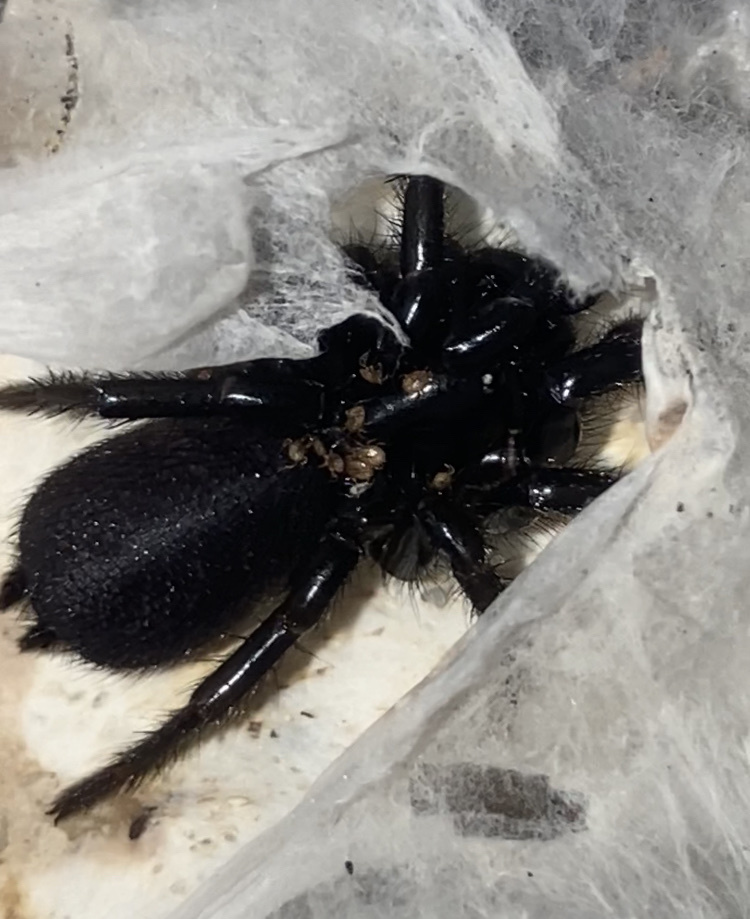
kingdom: Animalia
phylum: Arthropoda
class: Arachnida
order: Araneae
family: Atracidae
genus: Atrax
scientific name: Atrax robustus
